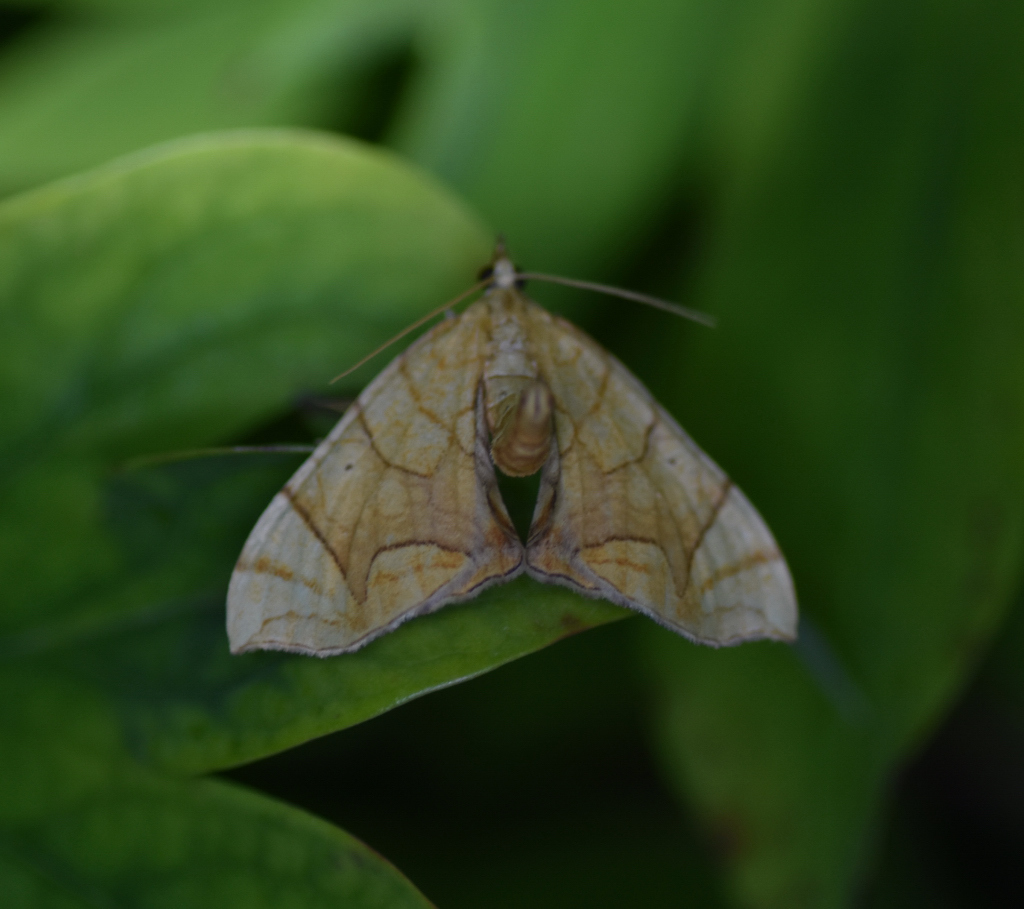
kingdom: Animalia
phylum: Arthropoda
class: Insecta
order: Lepidoptera
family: Geometridae
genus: Eulithis
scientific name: Eulithis
